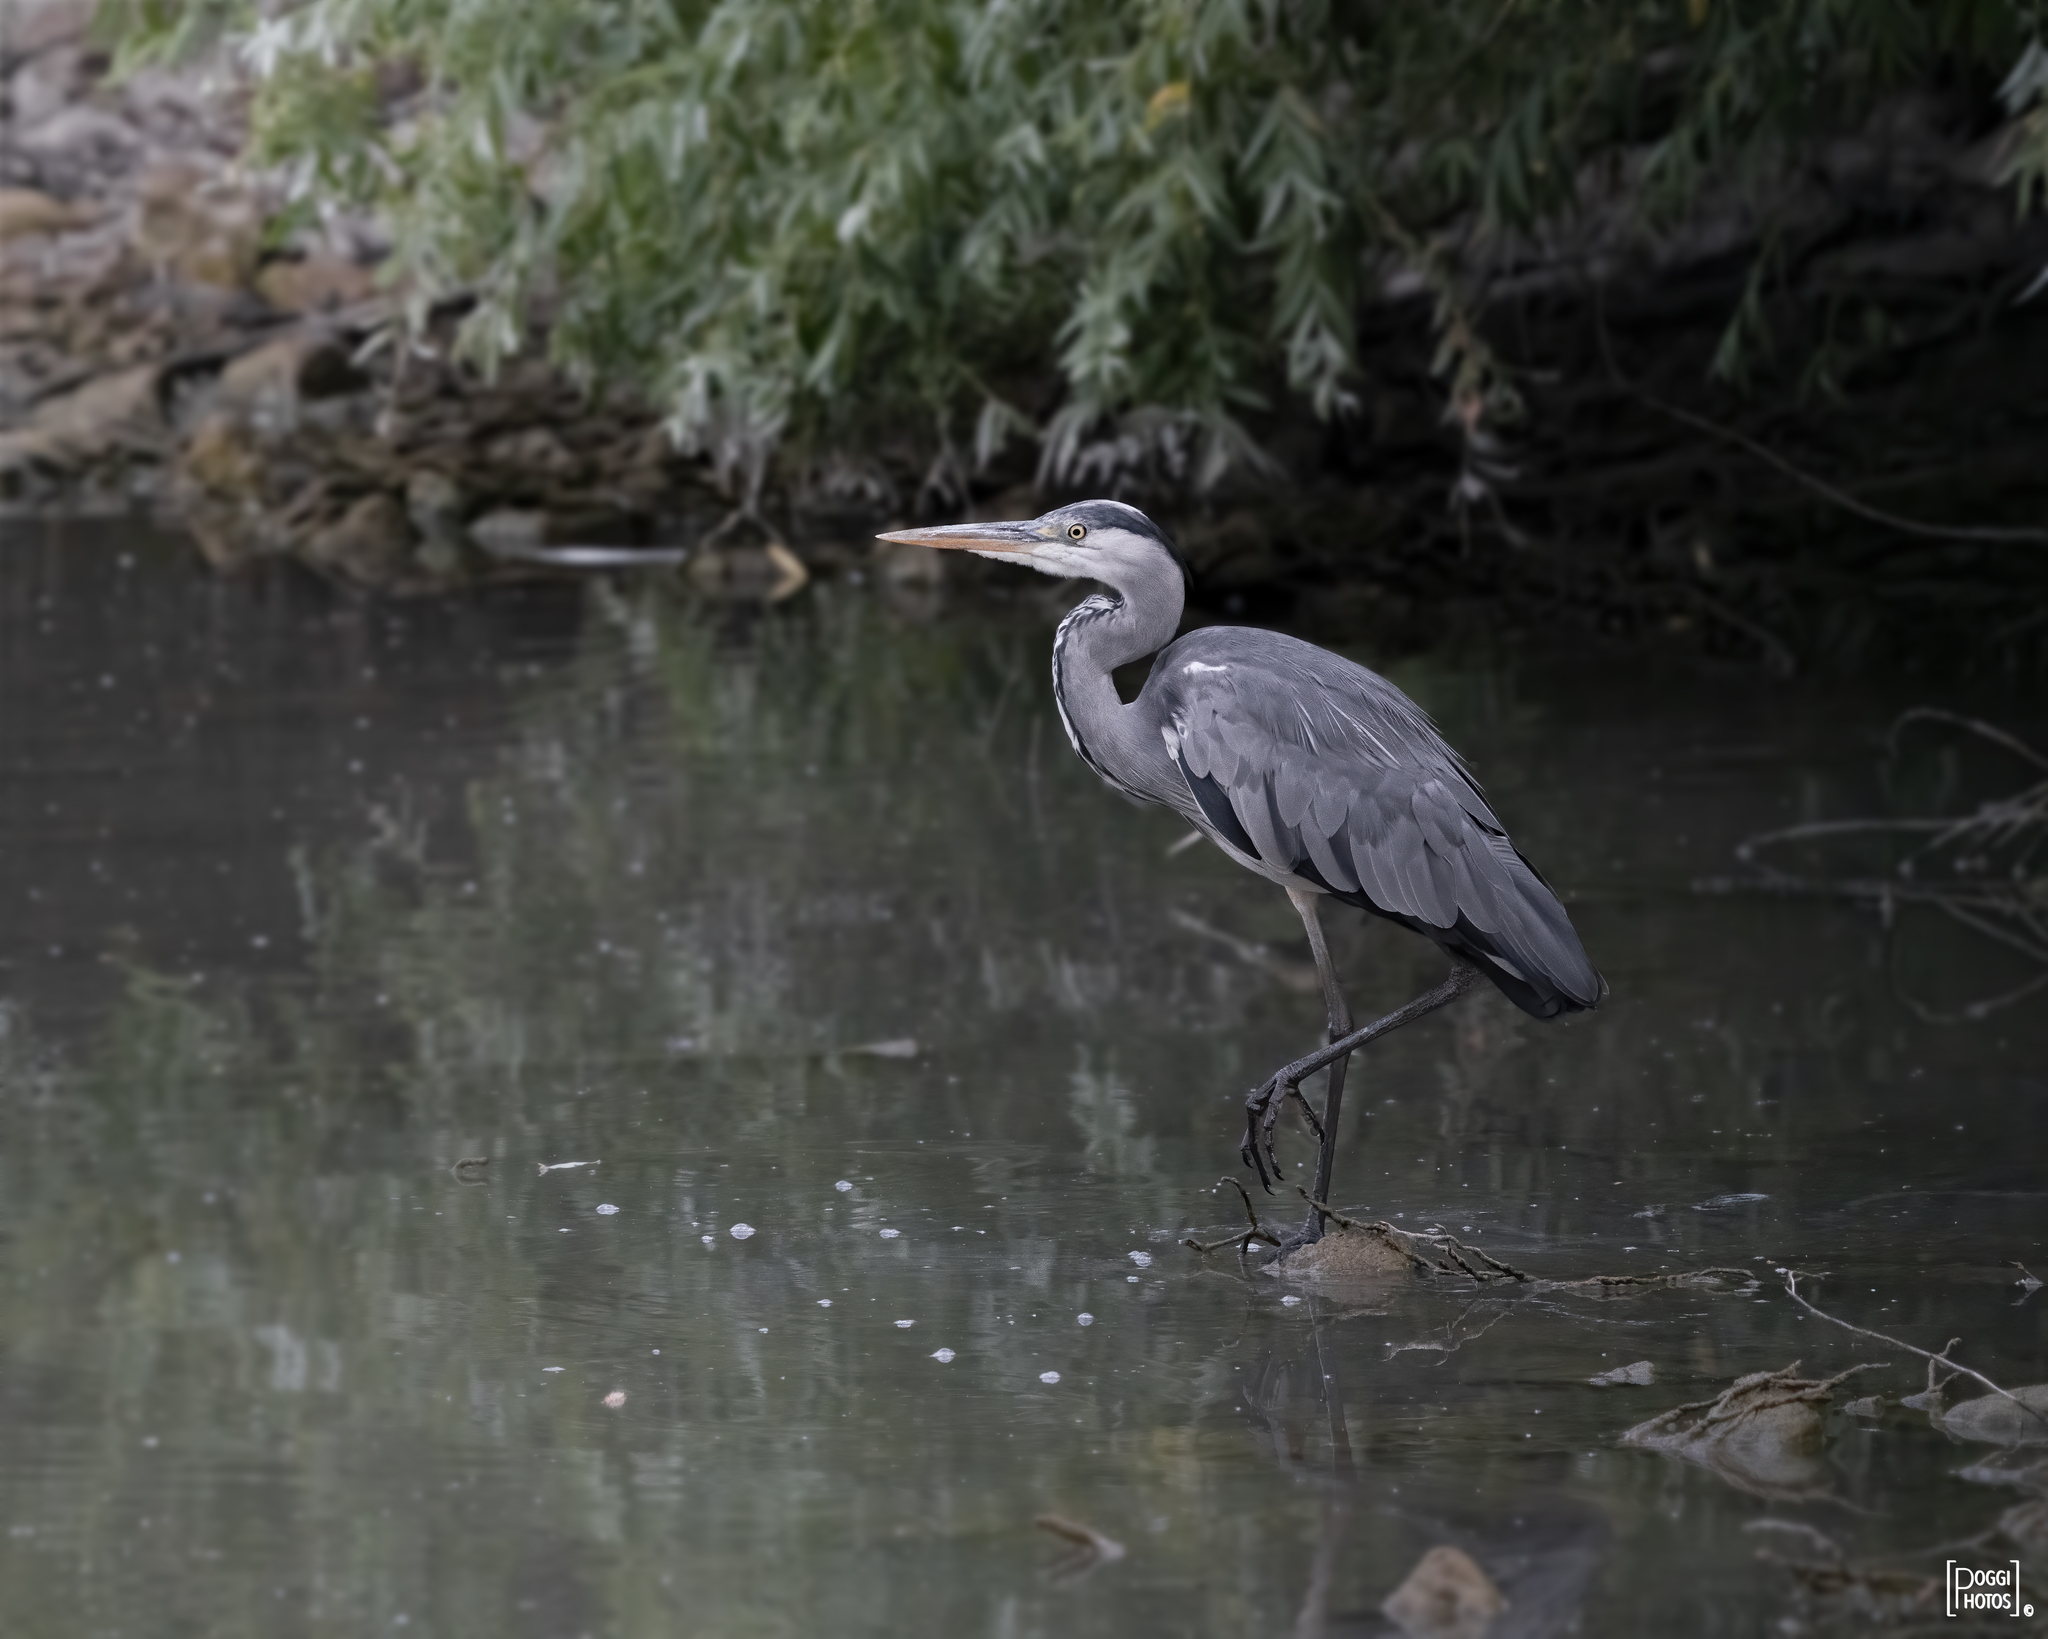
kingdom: Animalia
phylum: Chordata
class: Aves
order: Pelecaniformes
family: Ardeidae
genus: Ardea
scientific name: Ardea cinerea
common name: Grey heron
